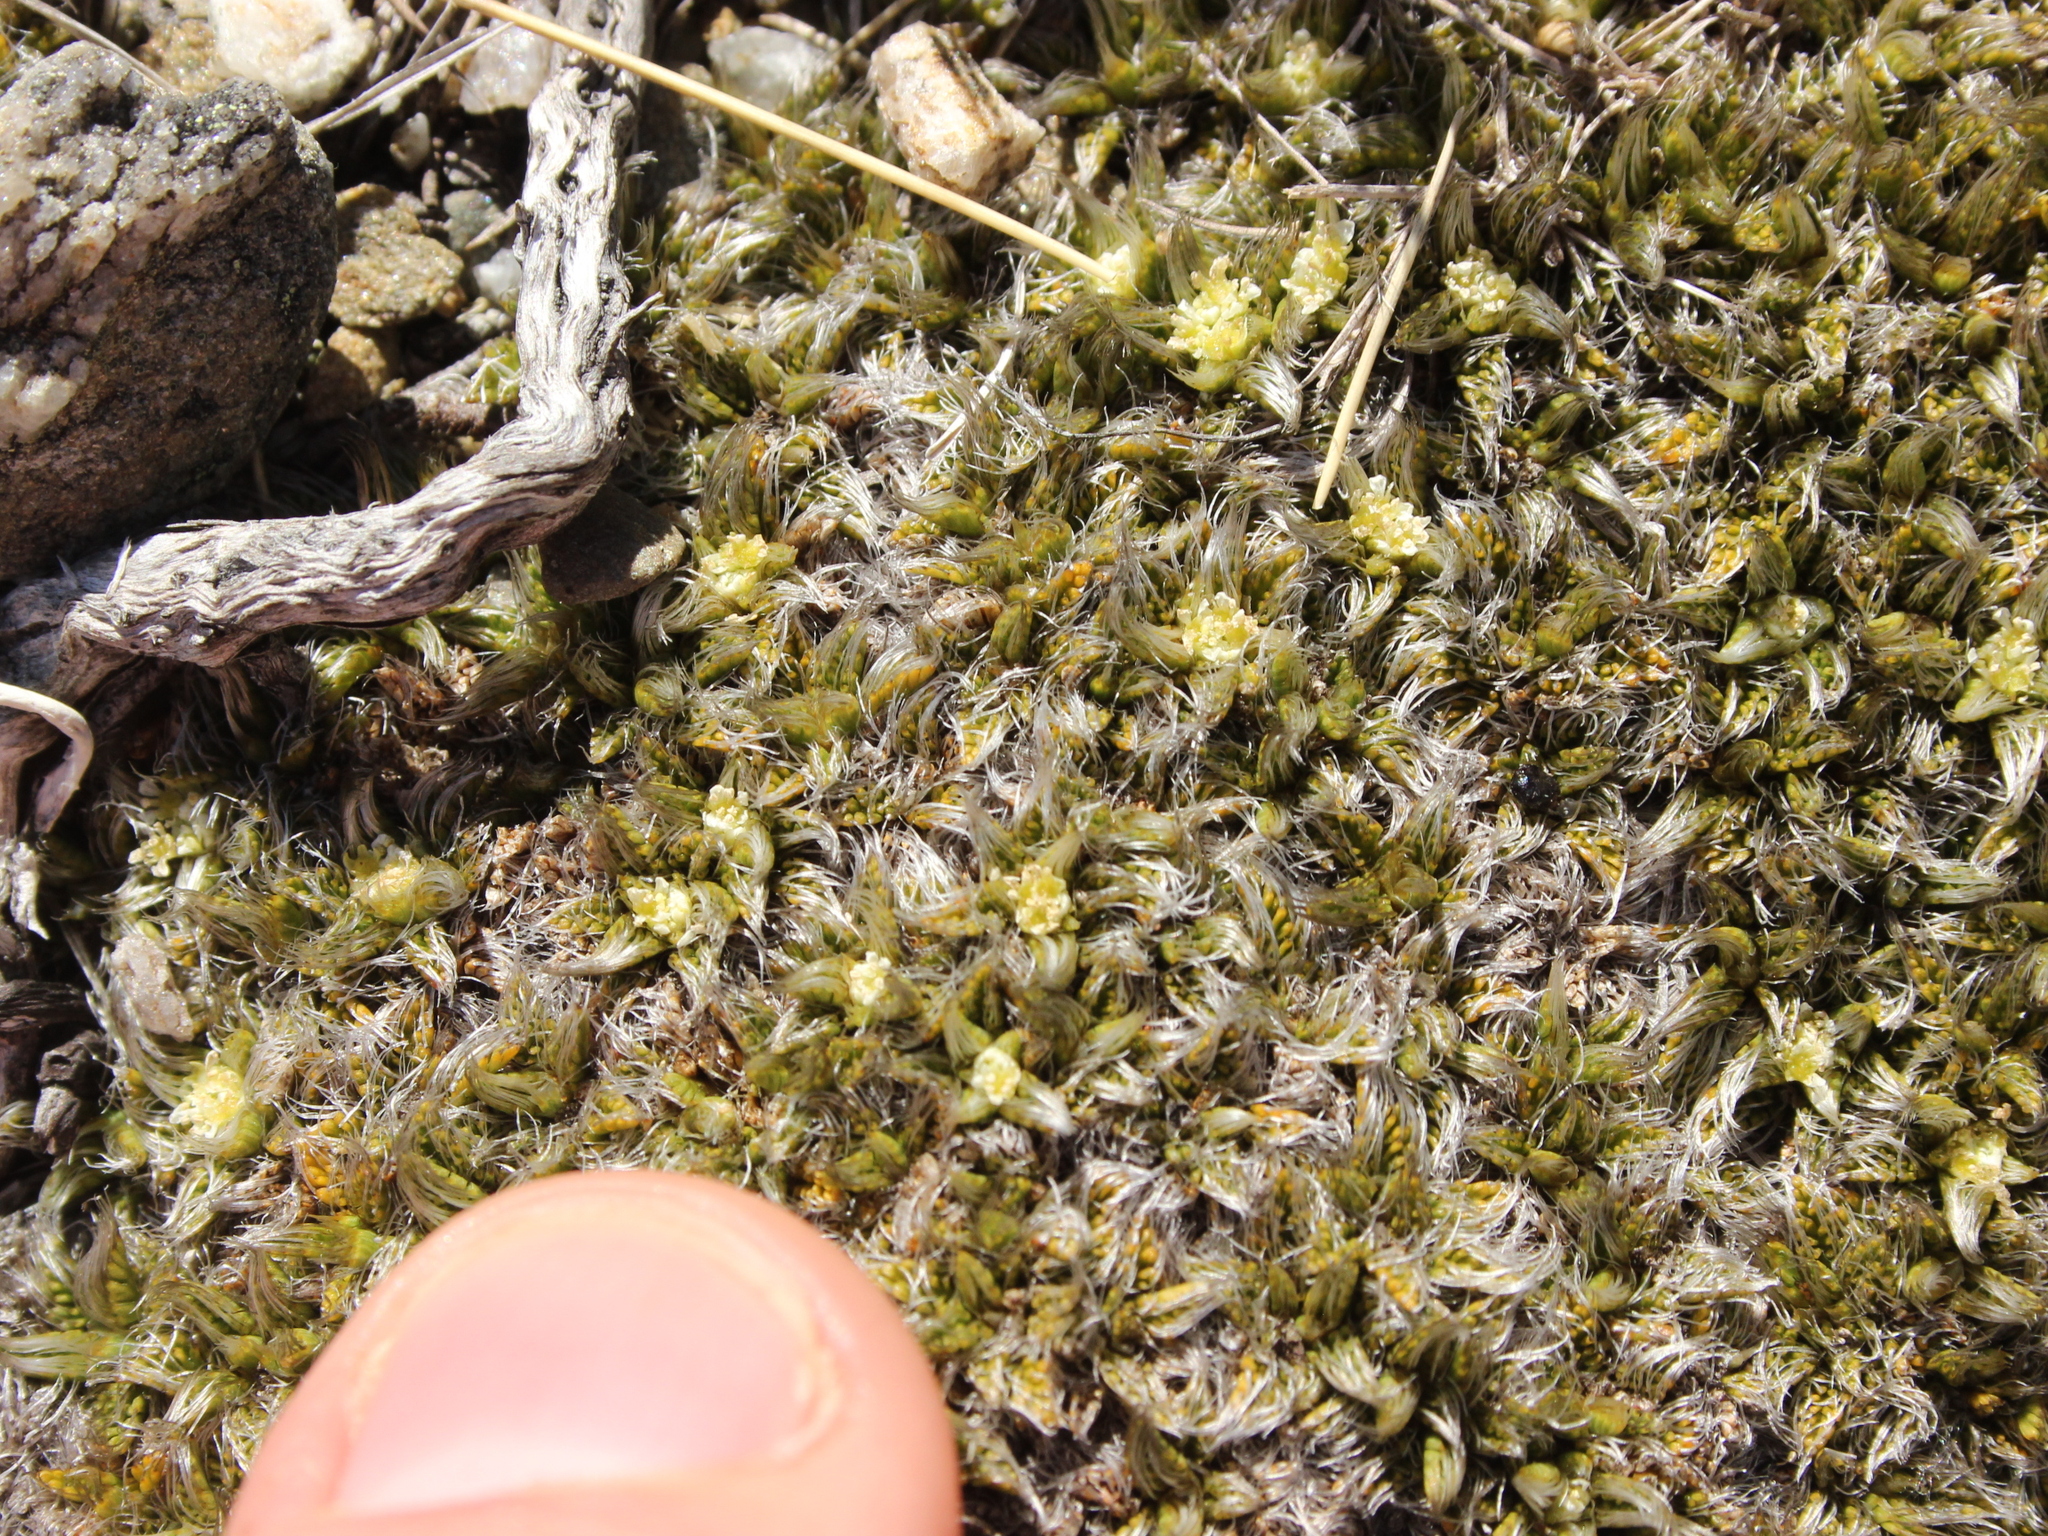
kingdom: Plantae
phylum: Tracheophyta
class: Magnoliopsida
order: Apiales
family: Apiaceae
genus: Anisotome
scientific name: Anisotome imbricata
